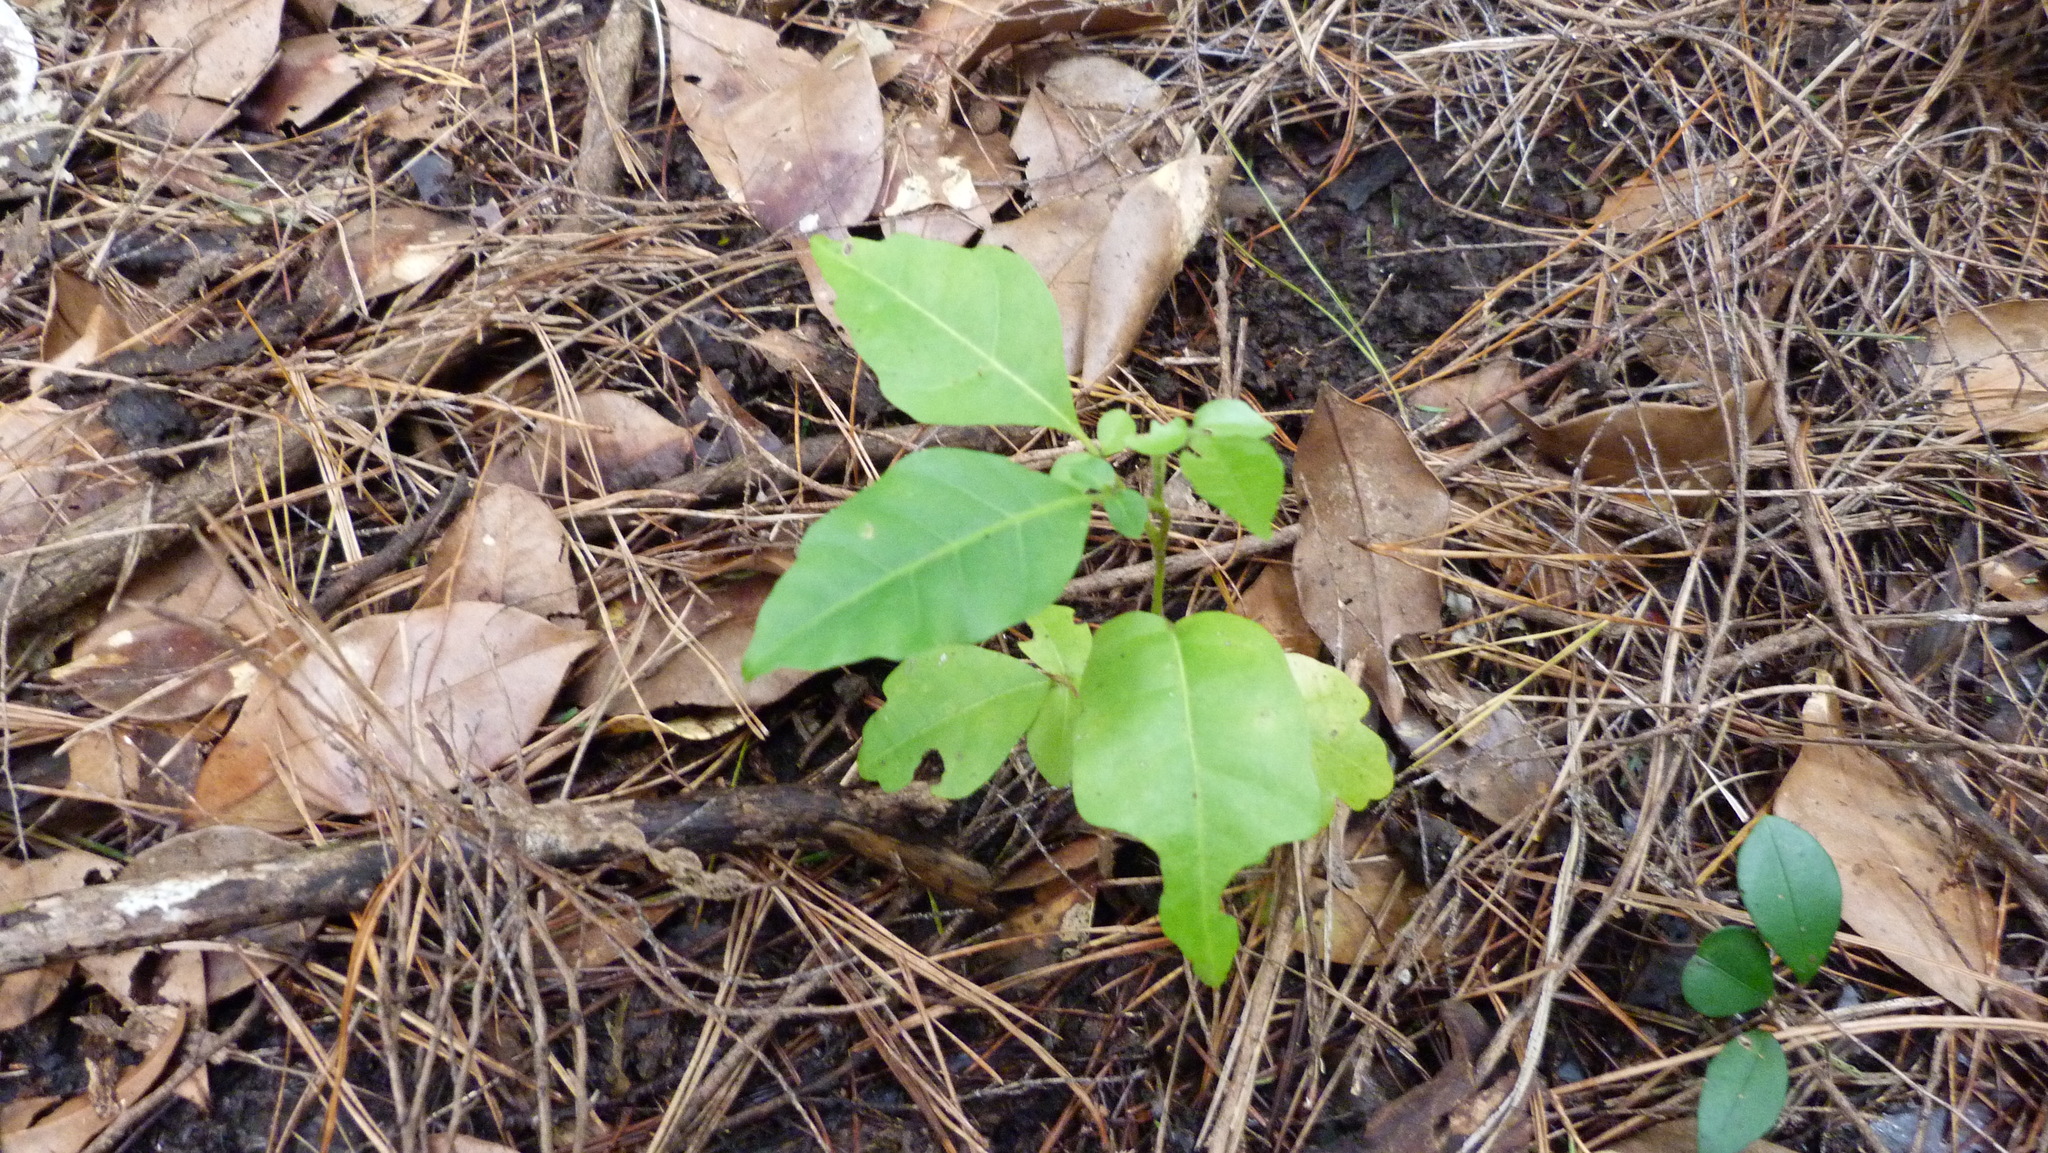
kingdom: Plantae
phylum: Tracheophyta
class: Magnoliopsida
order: Lamiales
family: Lamiaceae
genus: Vitex
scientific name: Vitex lucens
